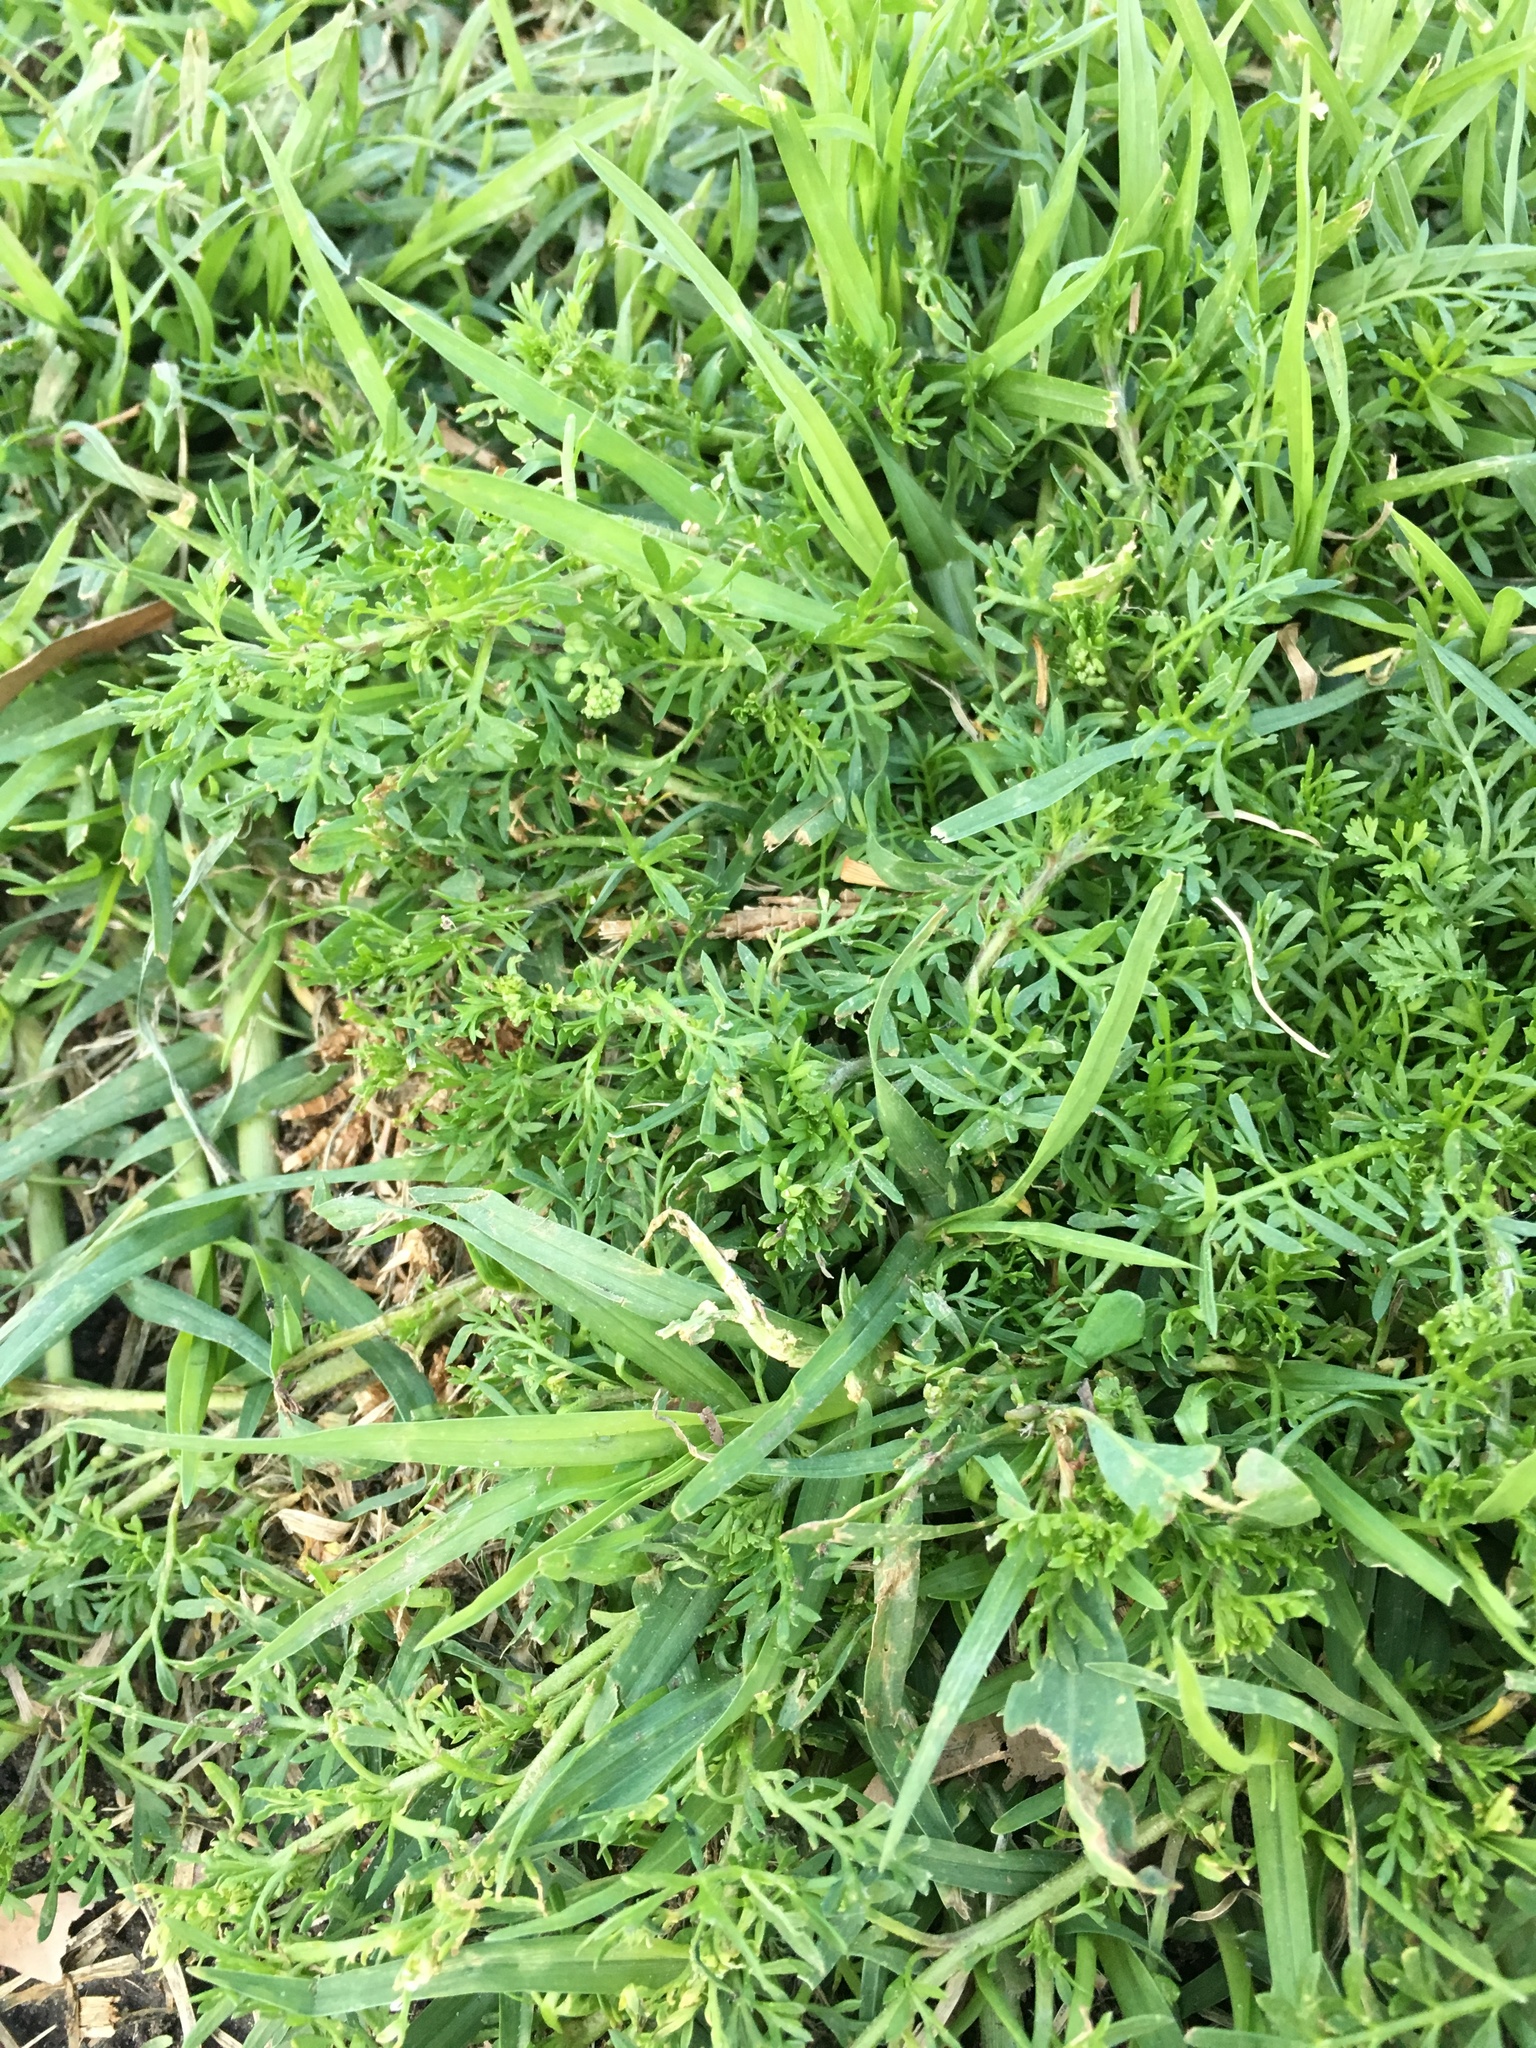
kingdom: Plantae
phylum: Tracheophyta
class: Magnoliopsida
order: Brassicales
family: Brassicaceae
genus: Lepidium
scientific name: Lepidium didymum
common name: Lesser swinecress
